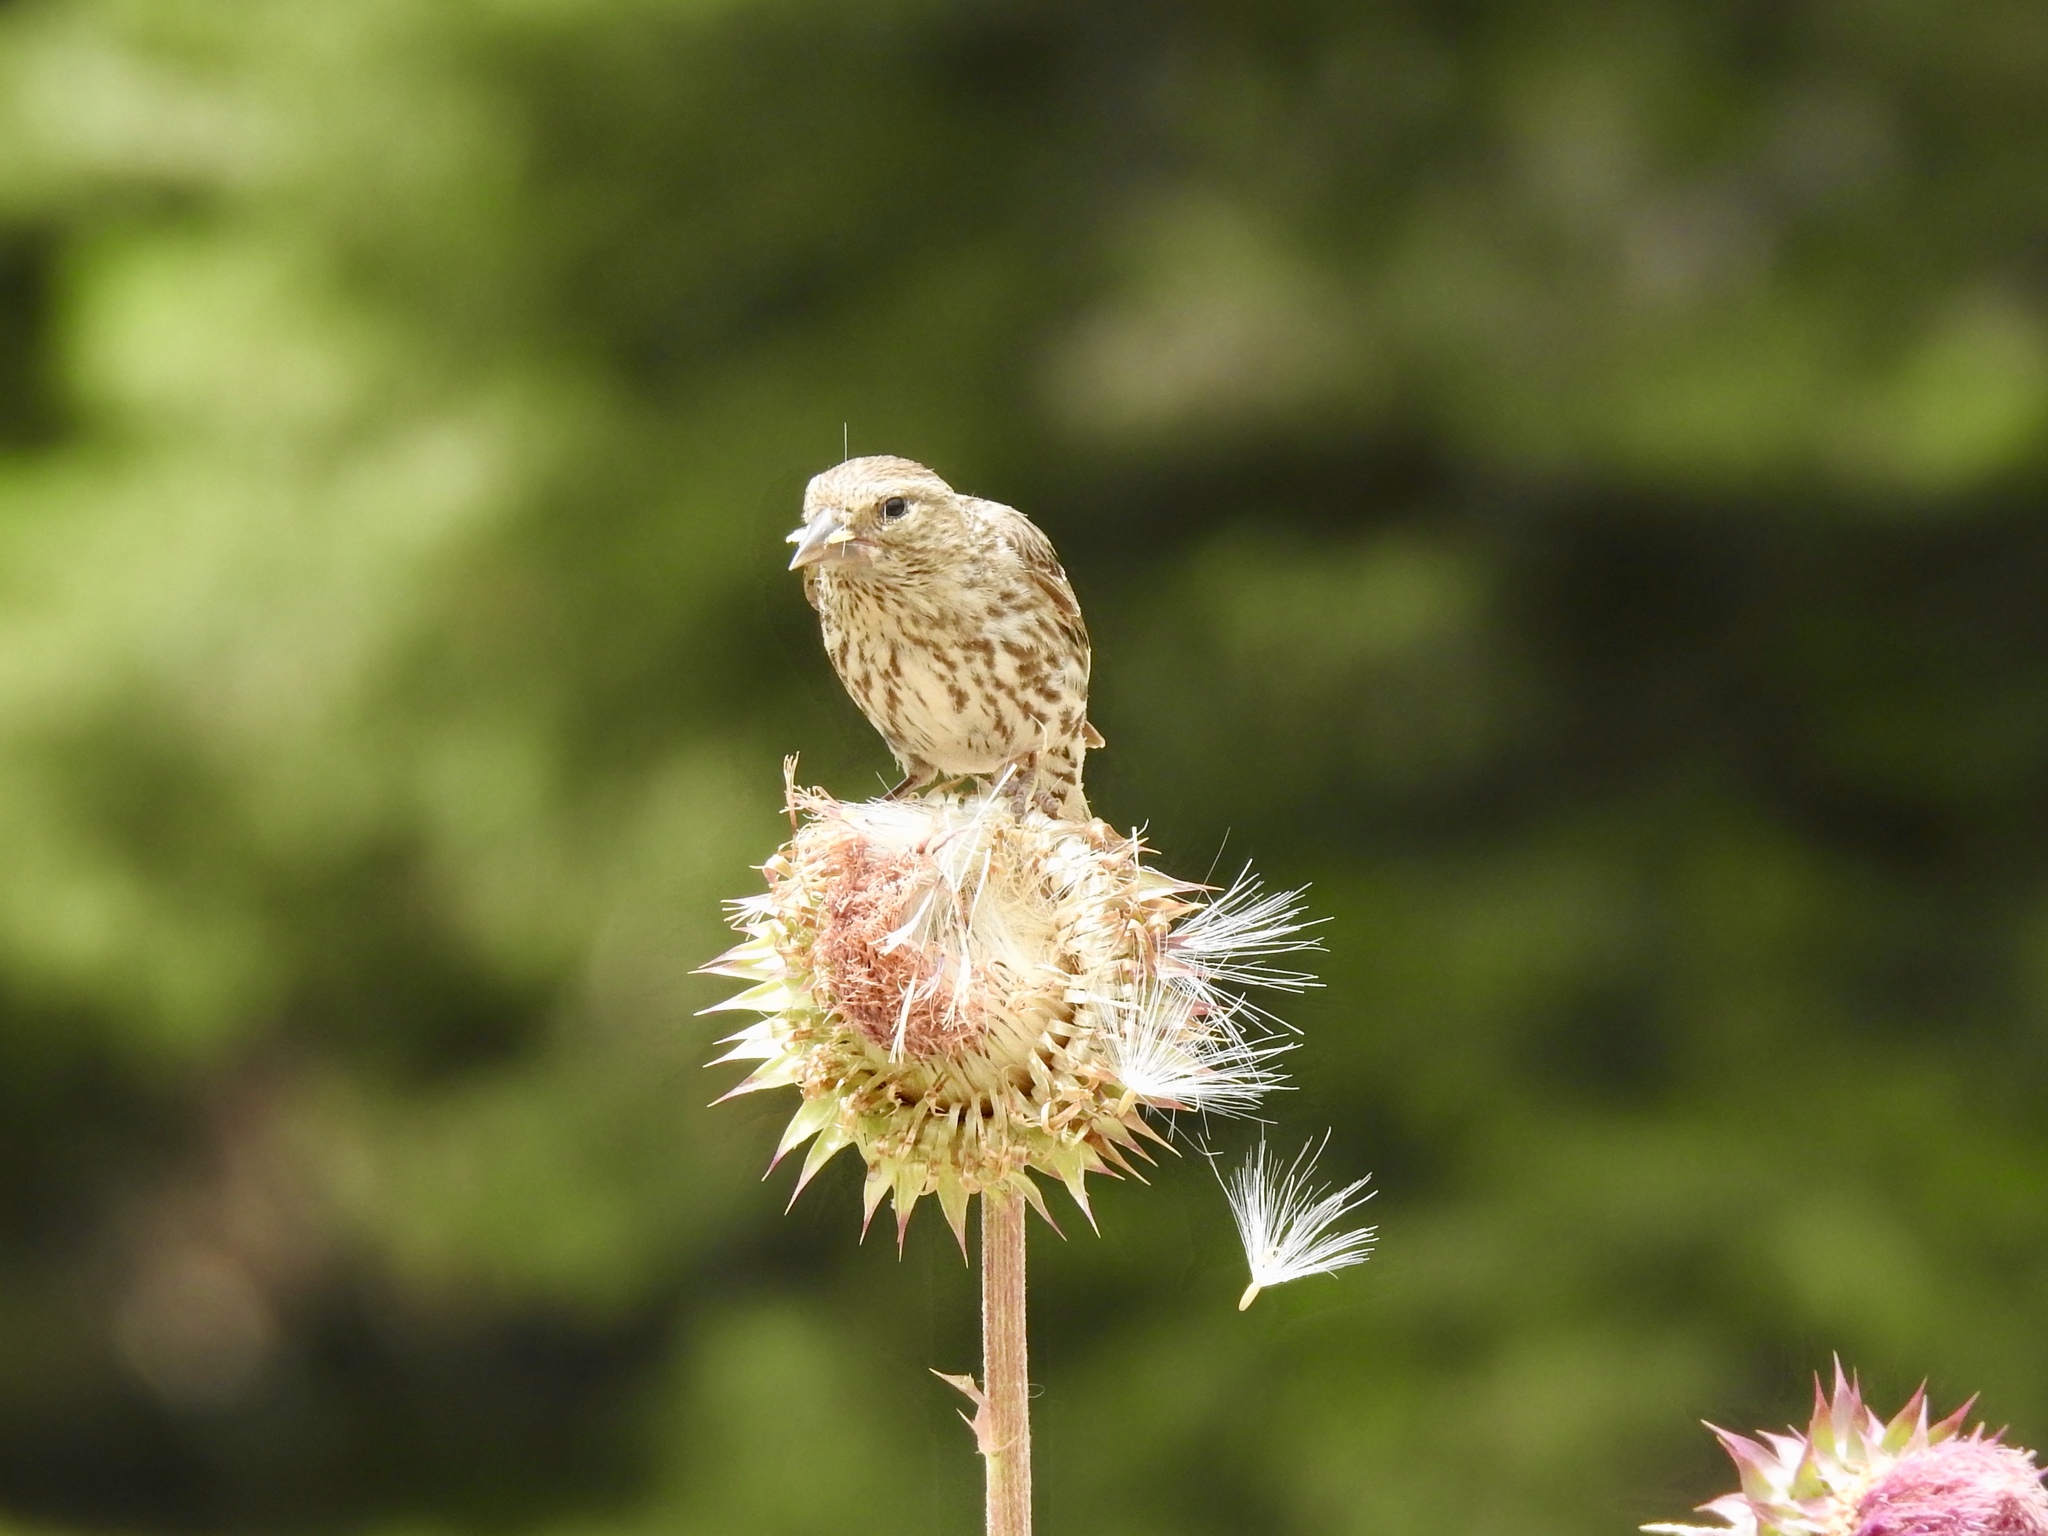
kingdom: Animalia
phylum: Chordata
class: Aves
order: Passeriformes
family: Fringillidae
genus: Spinus
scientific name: Spinus pinus
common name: Pine siskin
